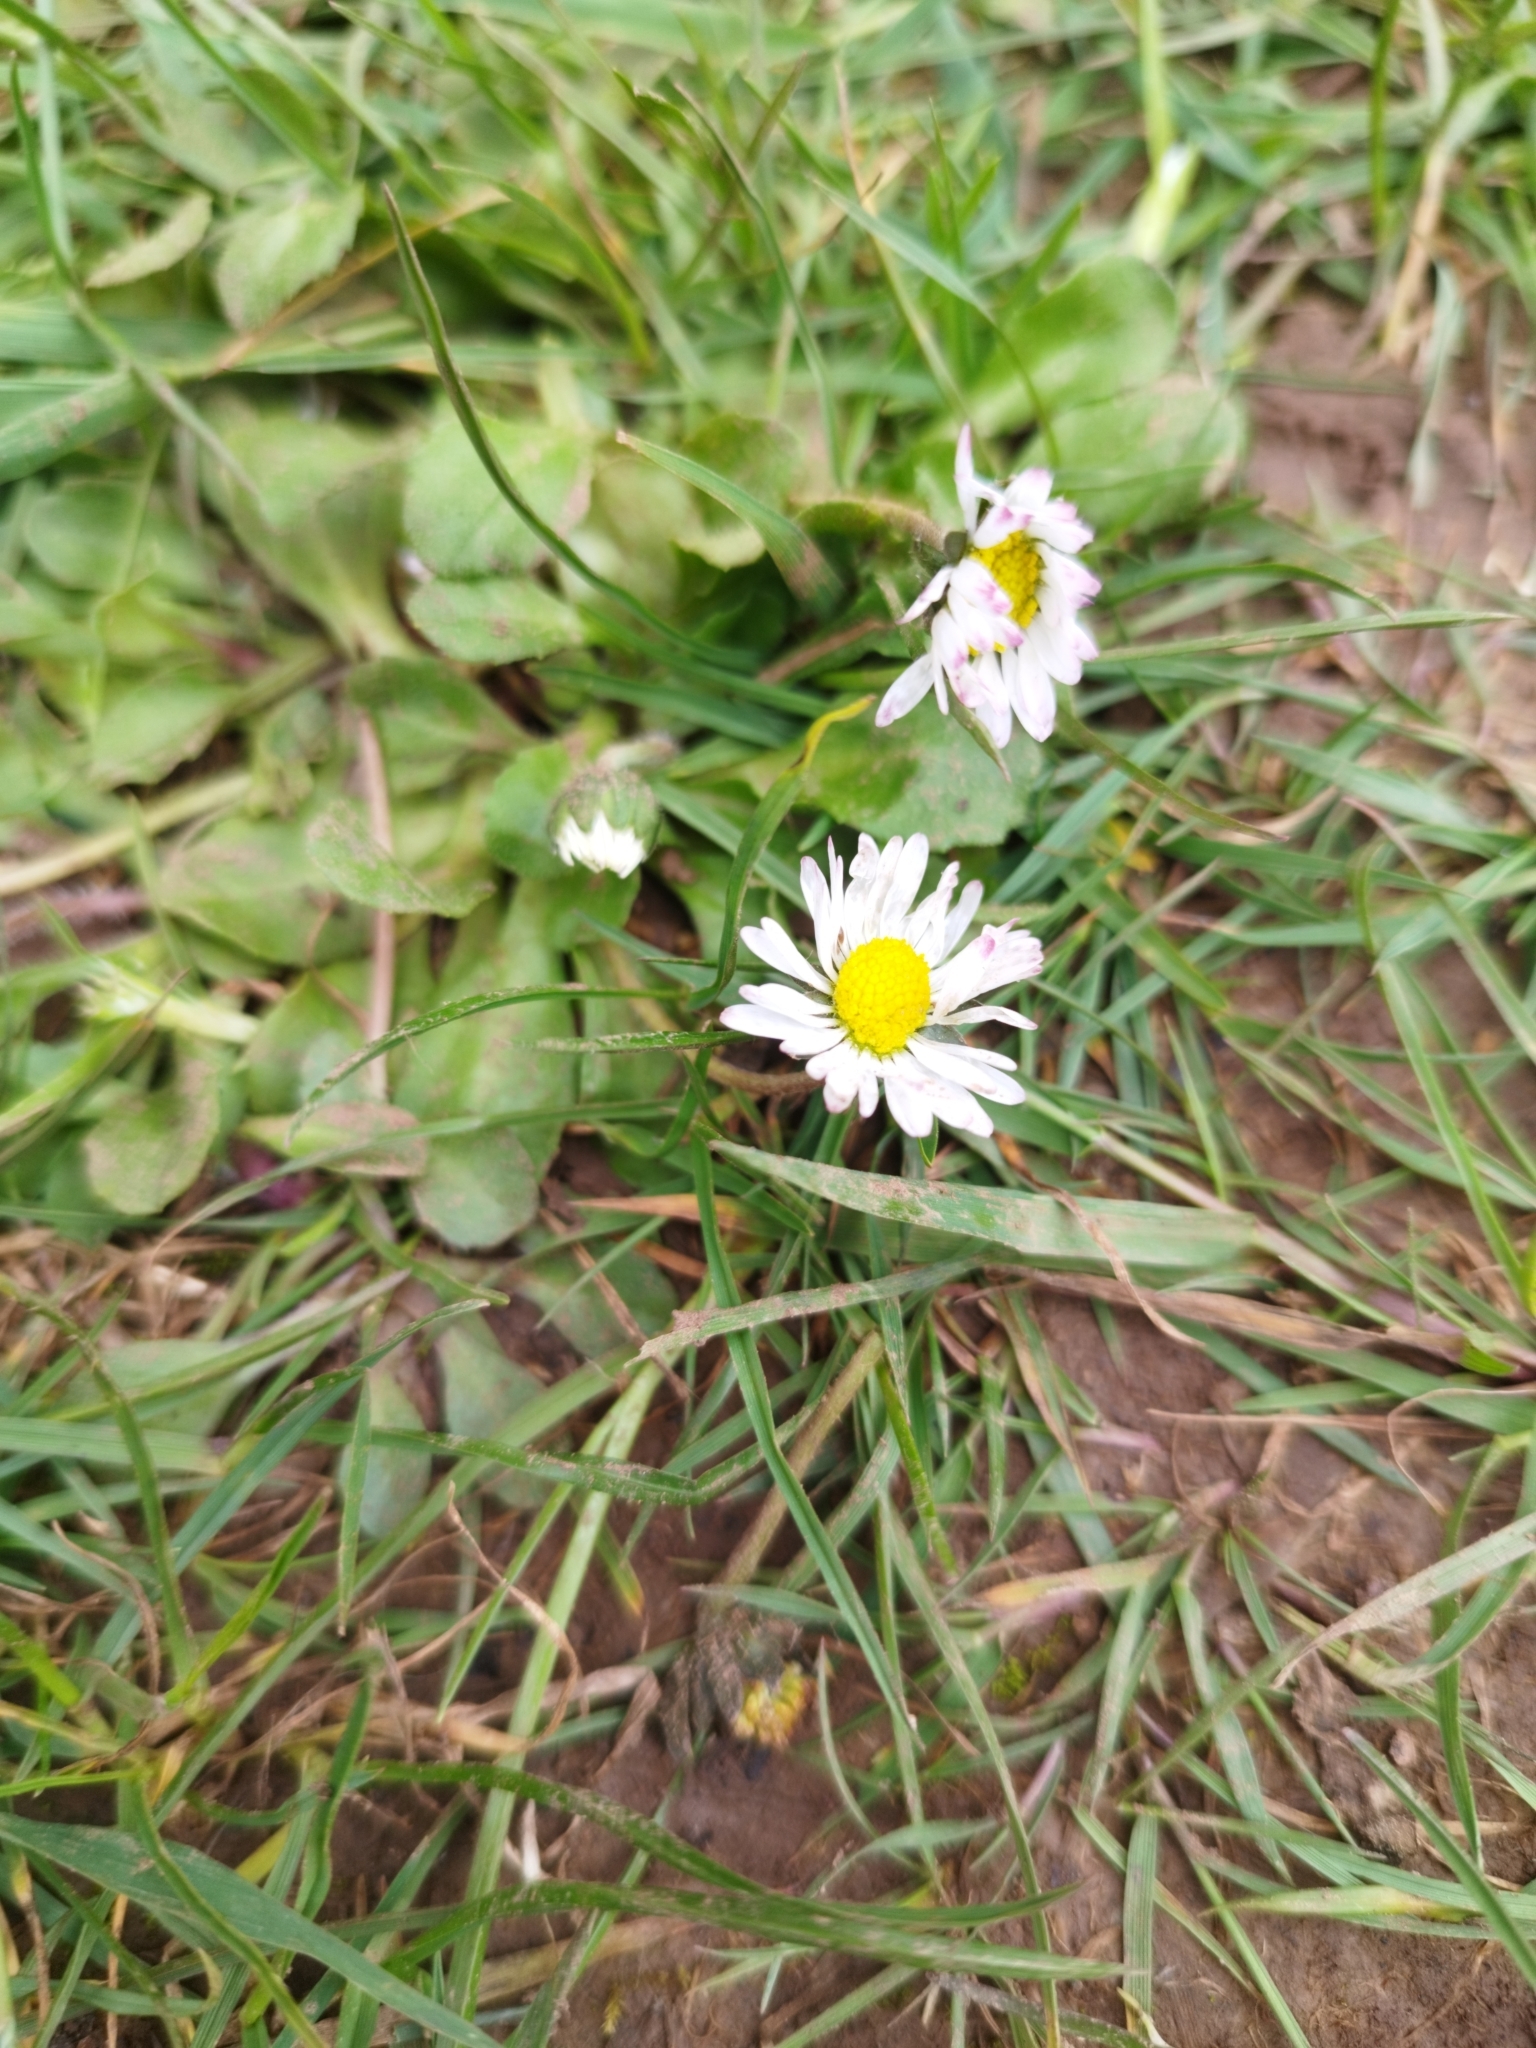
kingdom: Plantae
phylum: Tracheophyta
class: Magnoliopsida
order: Asterales
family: Asteraceae
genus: Bellis
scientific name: Bellis perennis
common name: Lawndaisy
